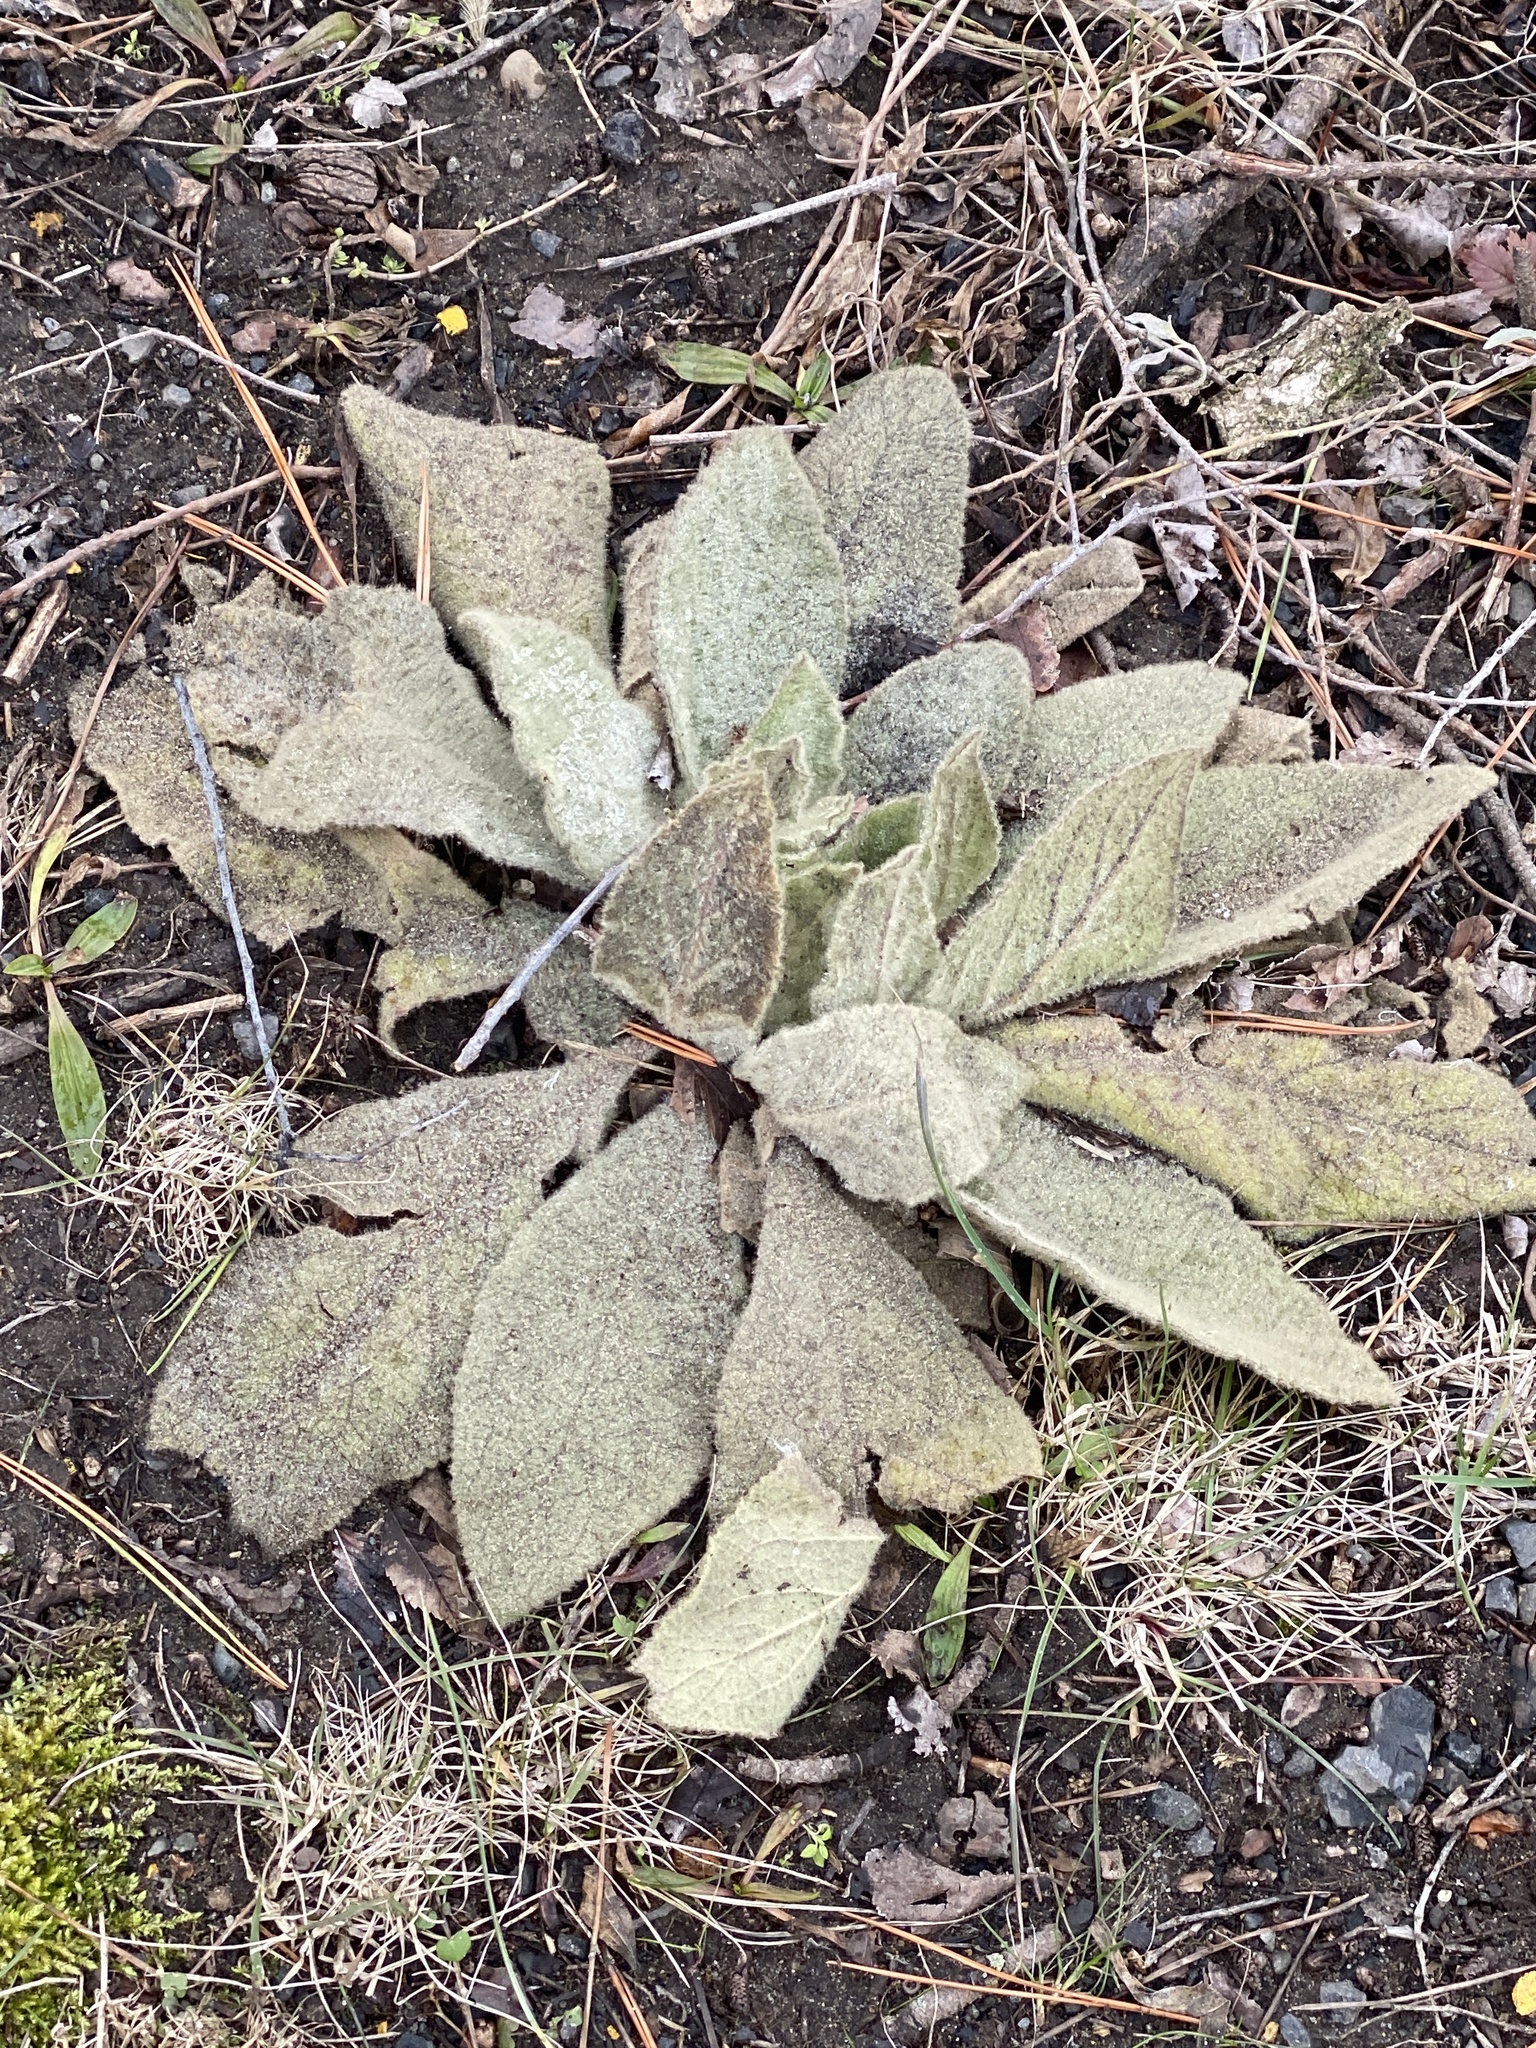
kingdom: Plantae
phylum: Tracheophyta
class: Magnoliopsida
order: Lamiales
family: Scrophulariaceae
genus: Verbascum
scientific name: Verbascum thapsus
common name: Common mullein
